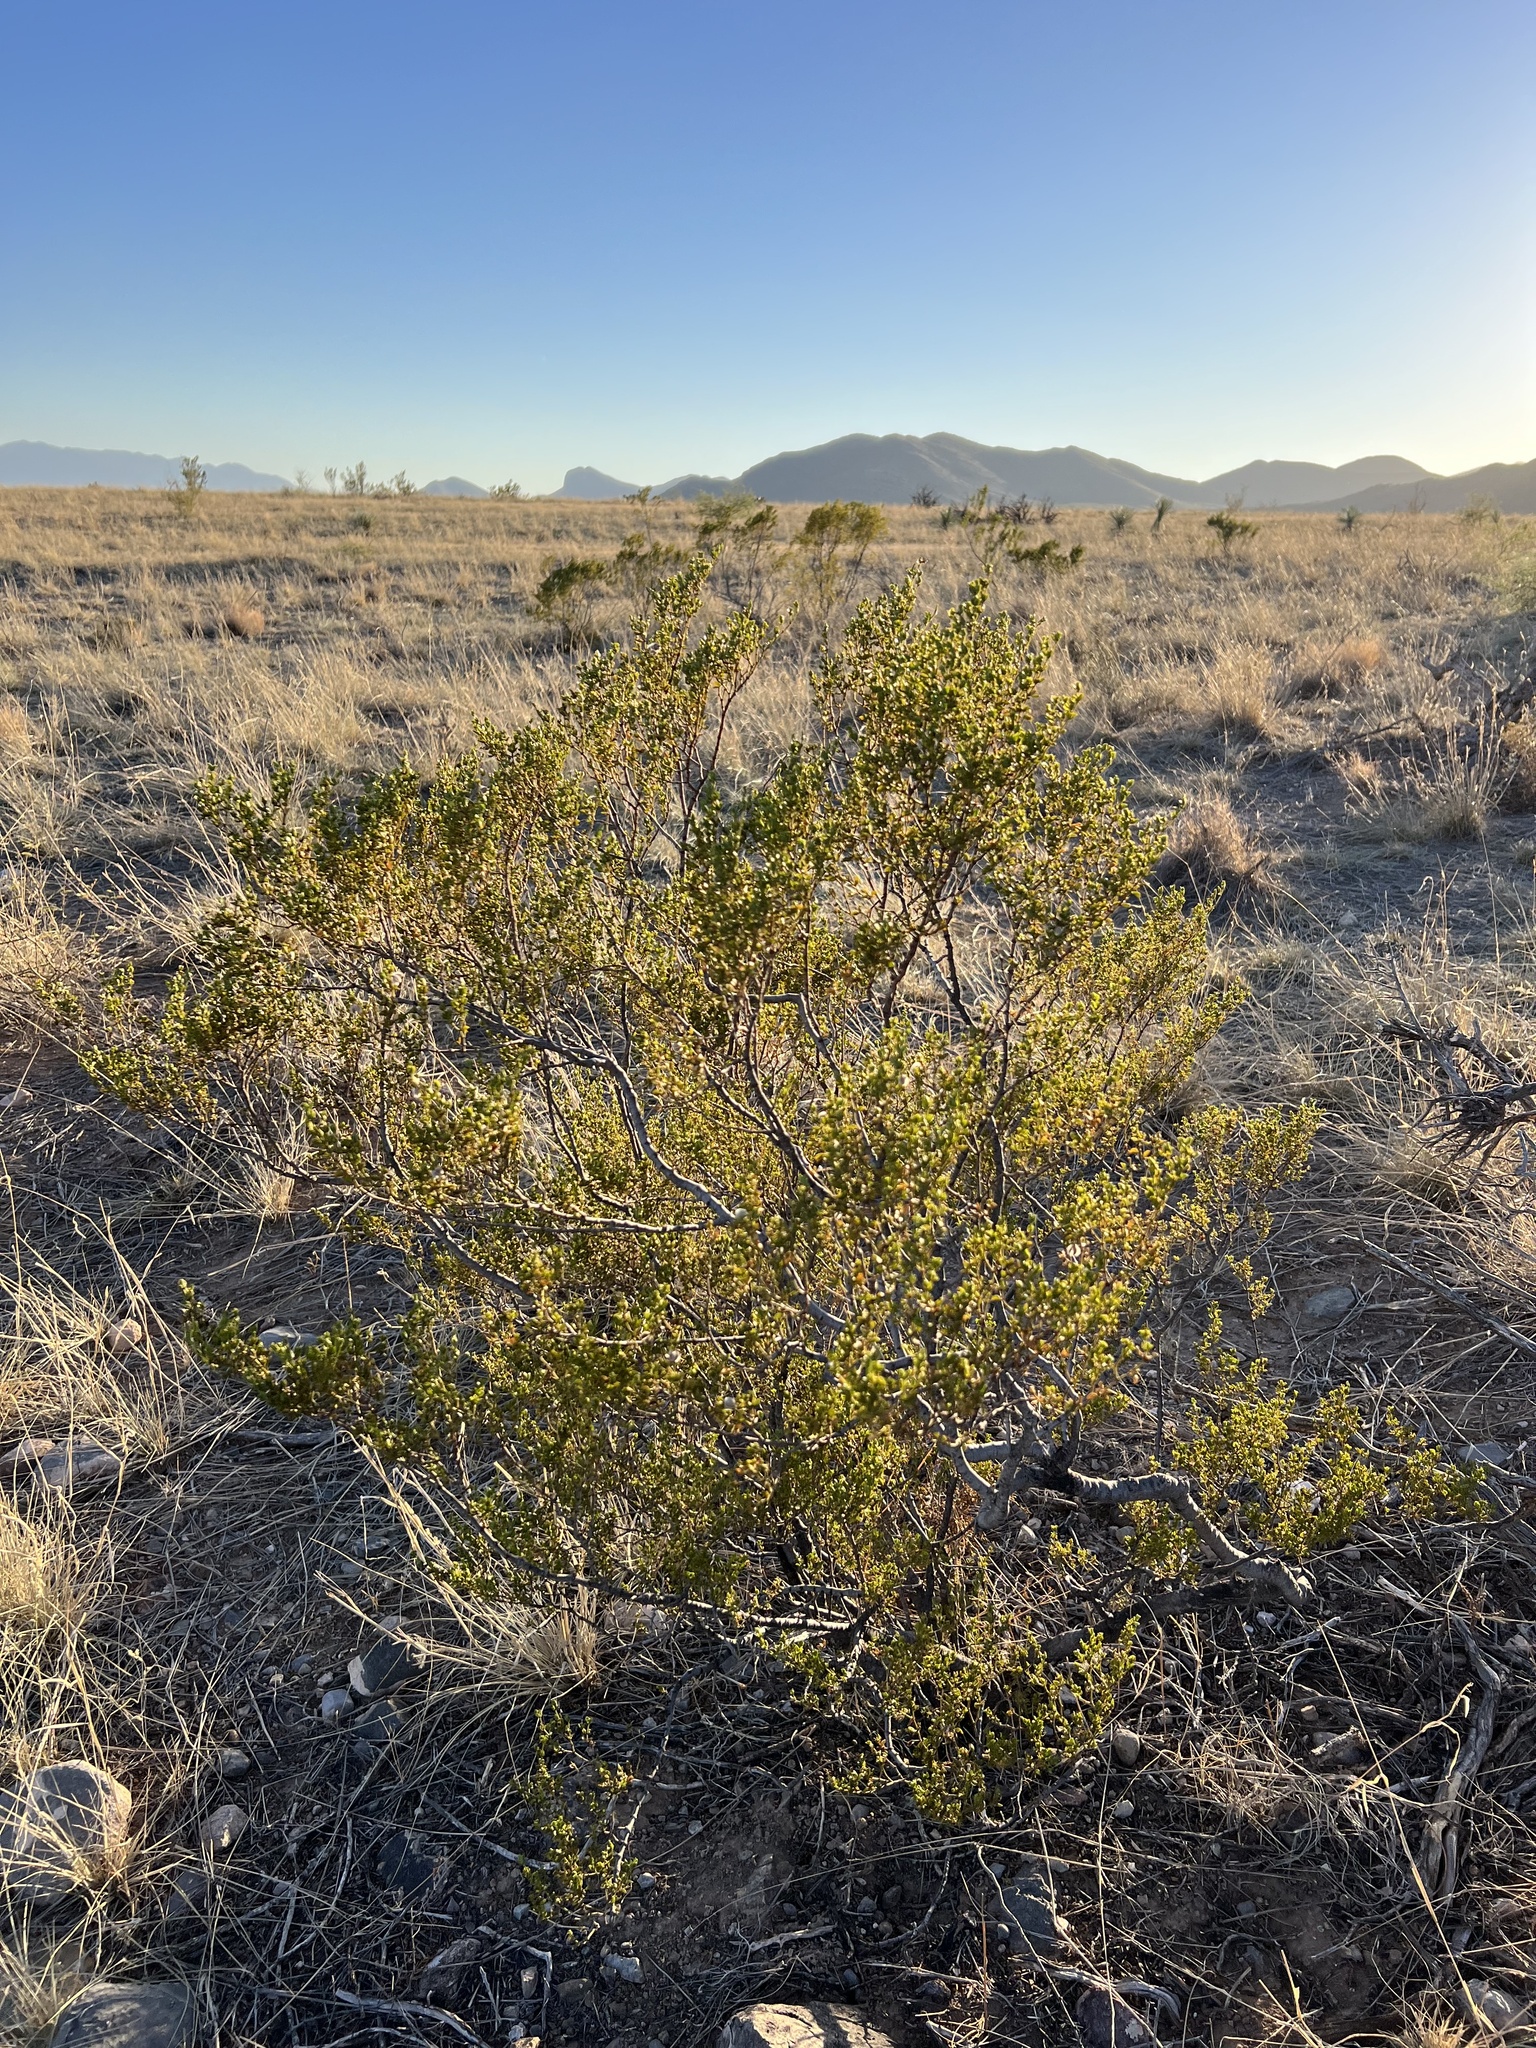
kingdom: Plantae
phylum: Tracheophyta
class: Magnoliopsida
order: Zygophyllales
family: Zygophyllaceae
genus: Larrea
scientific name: Larrea tridentata
